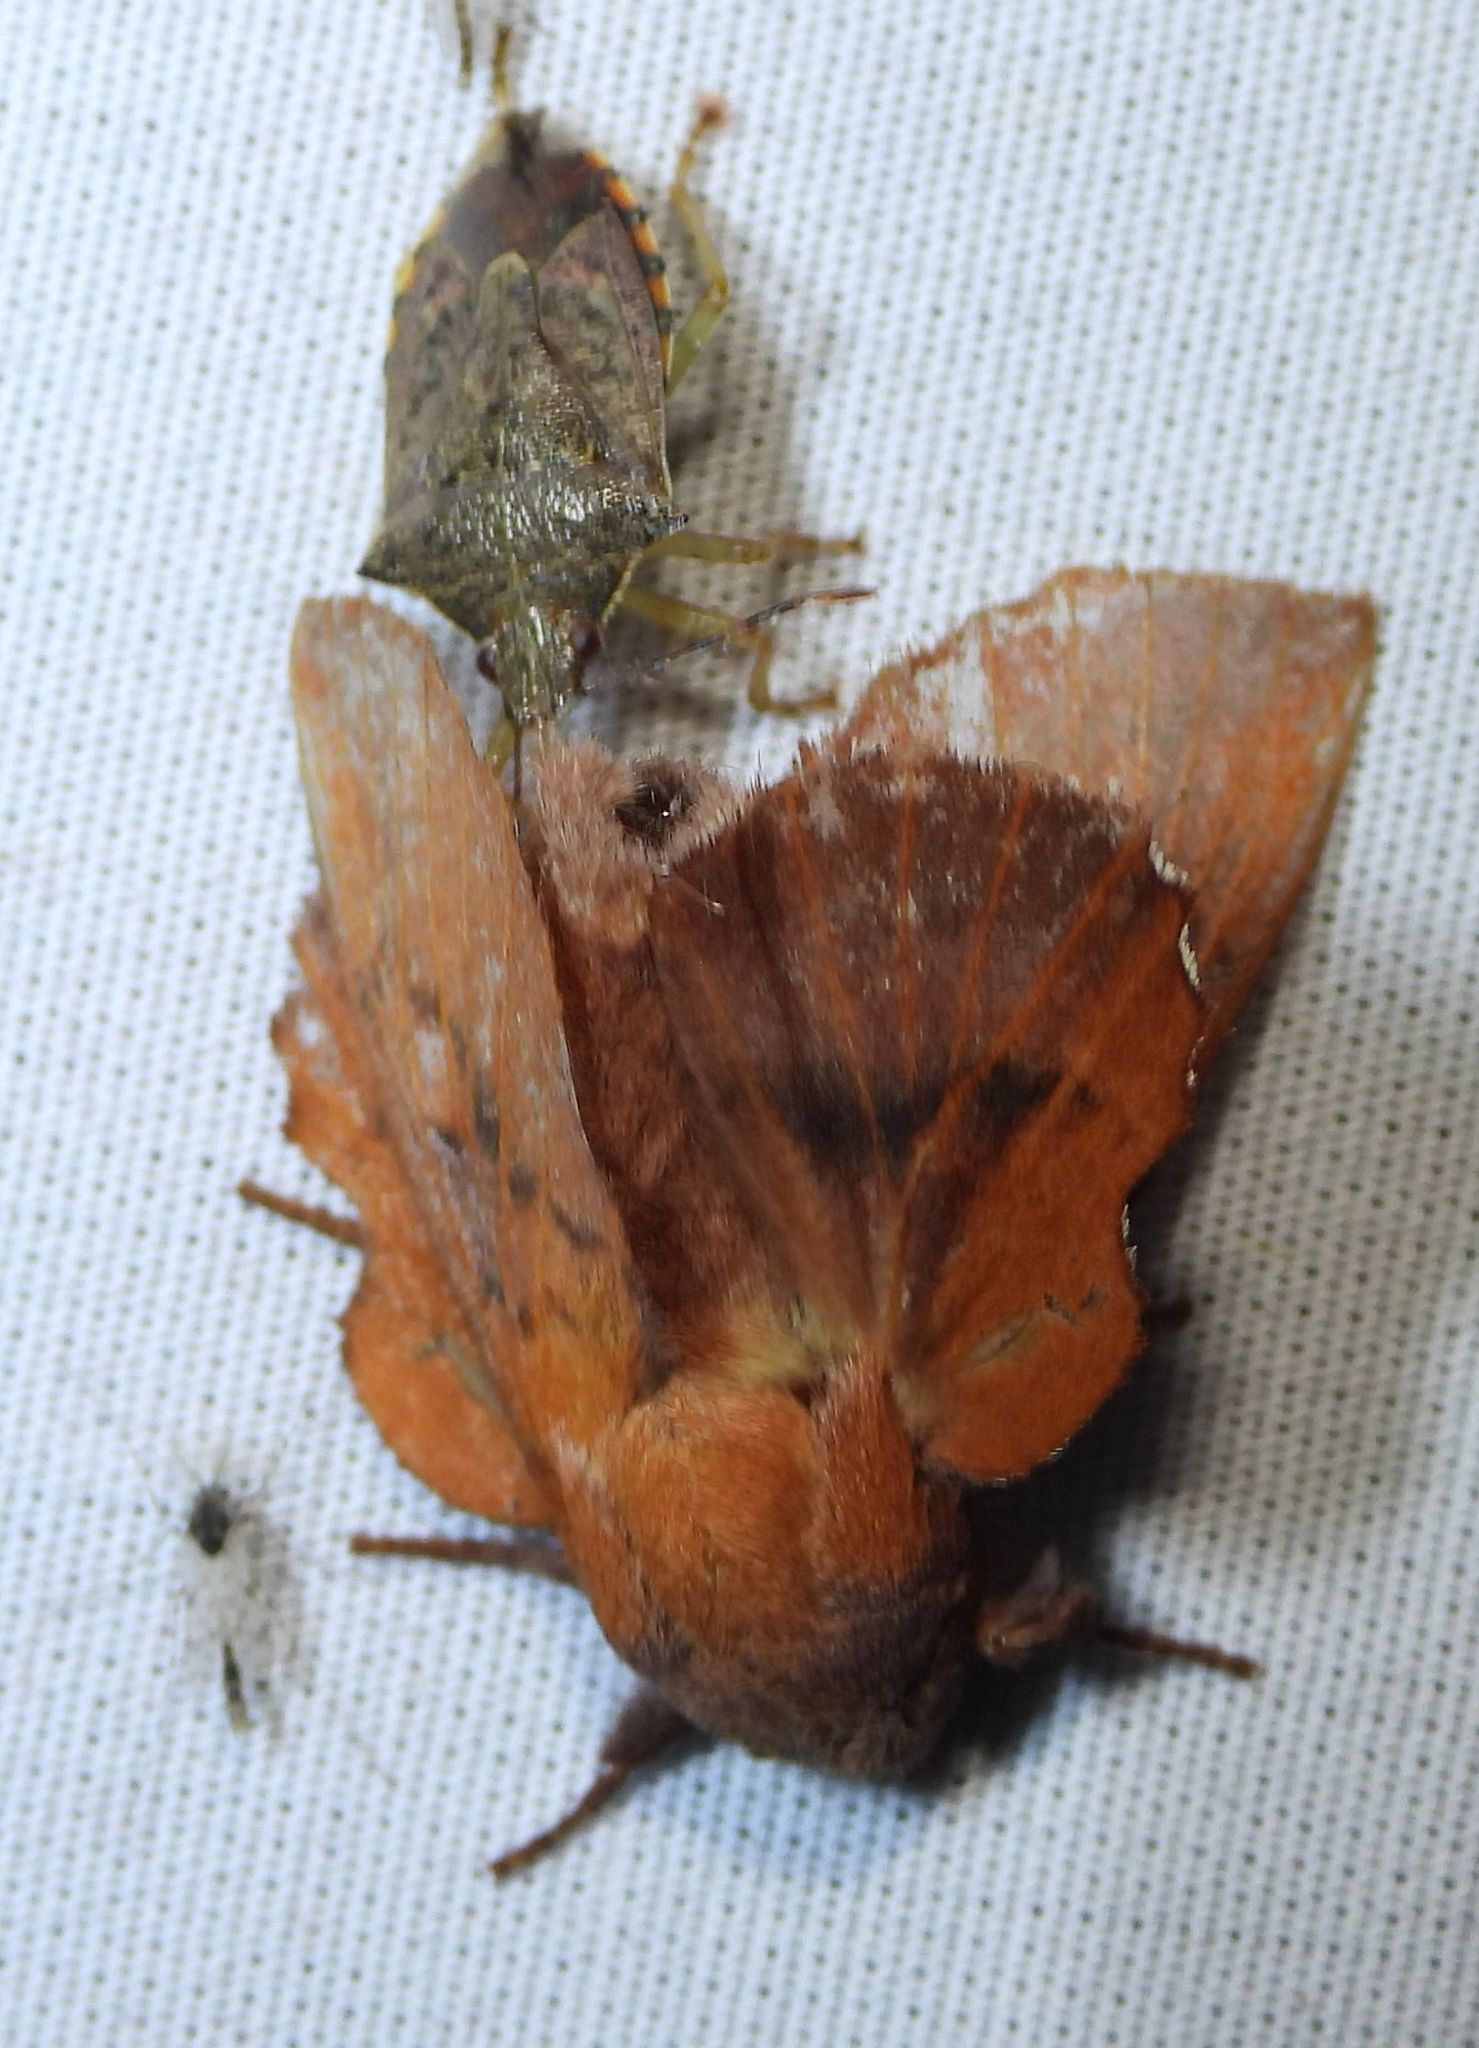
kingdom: Animalia
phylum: Arthropoda
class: Insecta
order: Lepidoptera
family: Lasiocampidae
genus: Phyllodesma
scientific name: Phyllodesma americana
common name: American lappet moth
